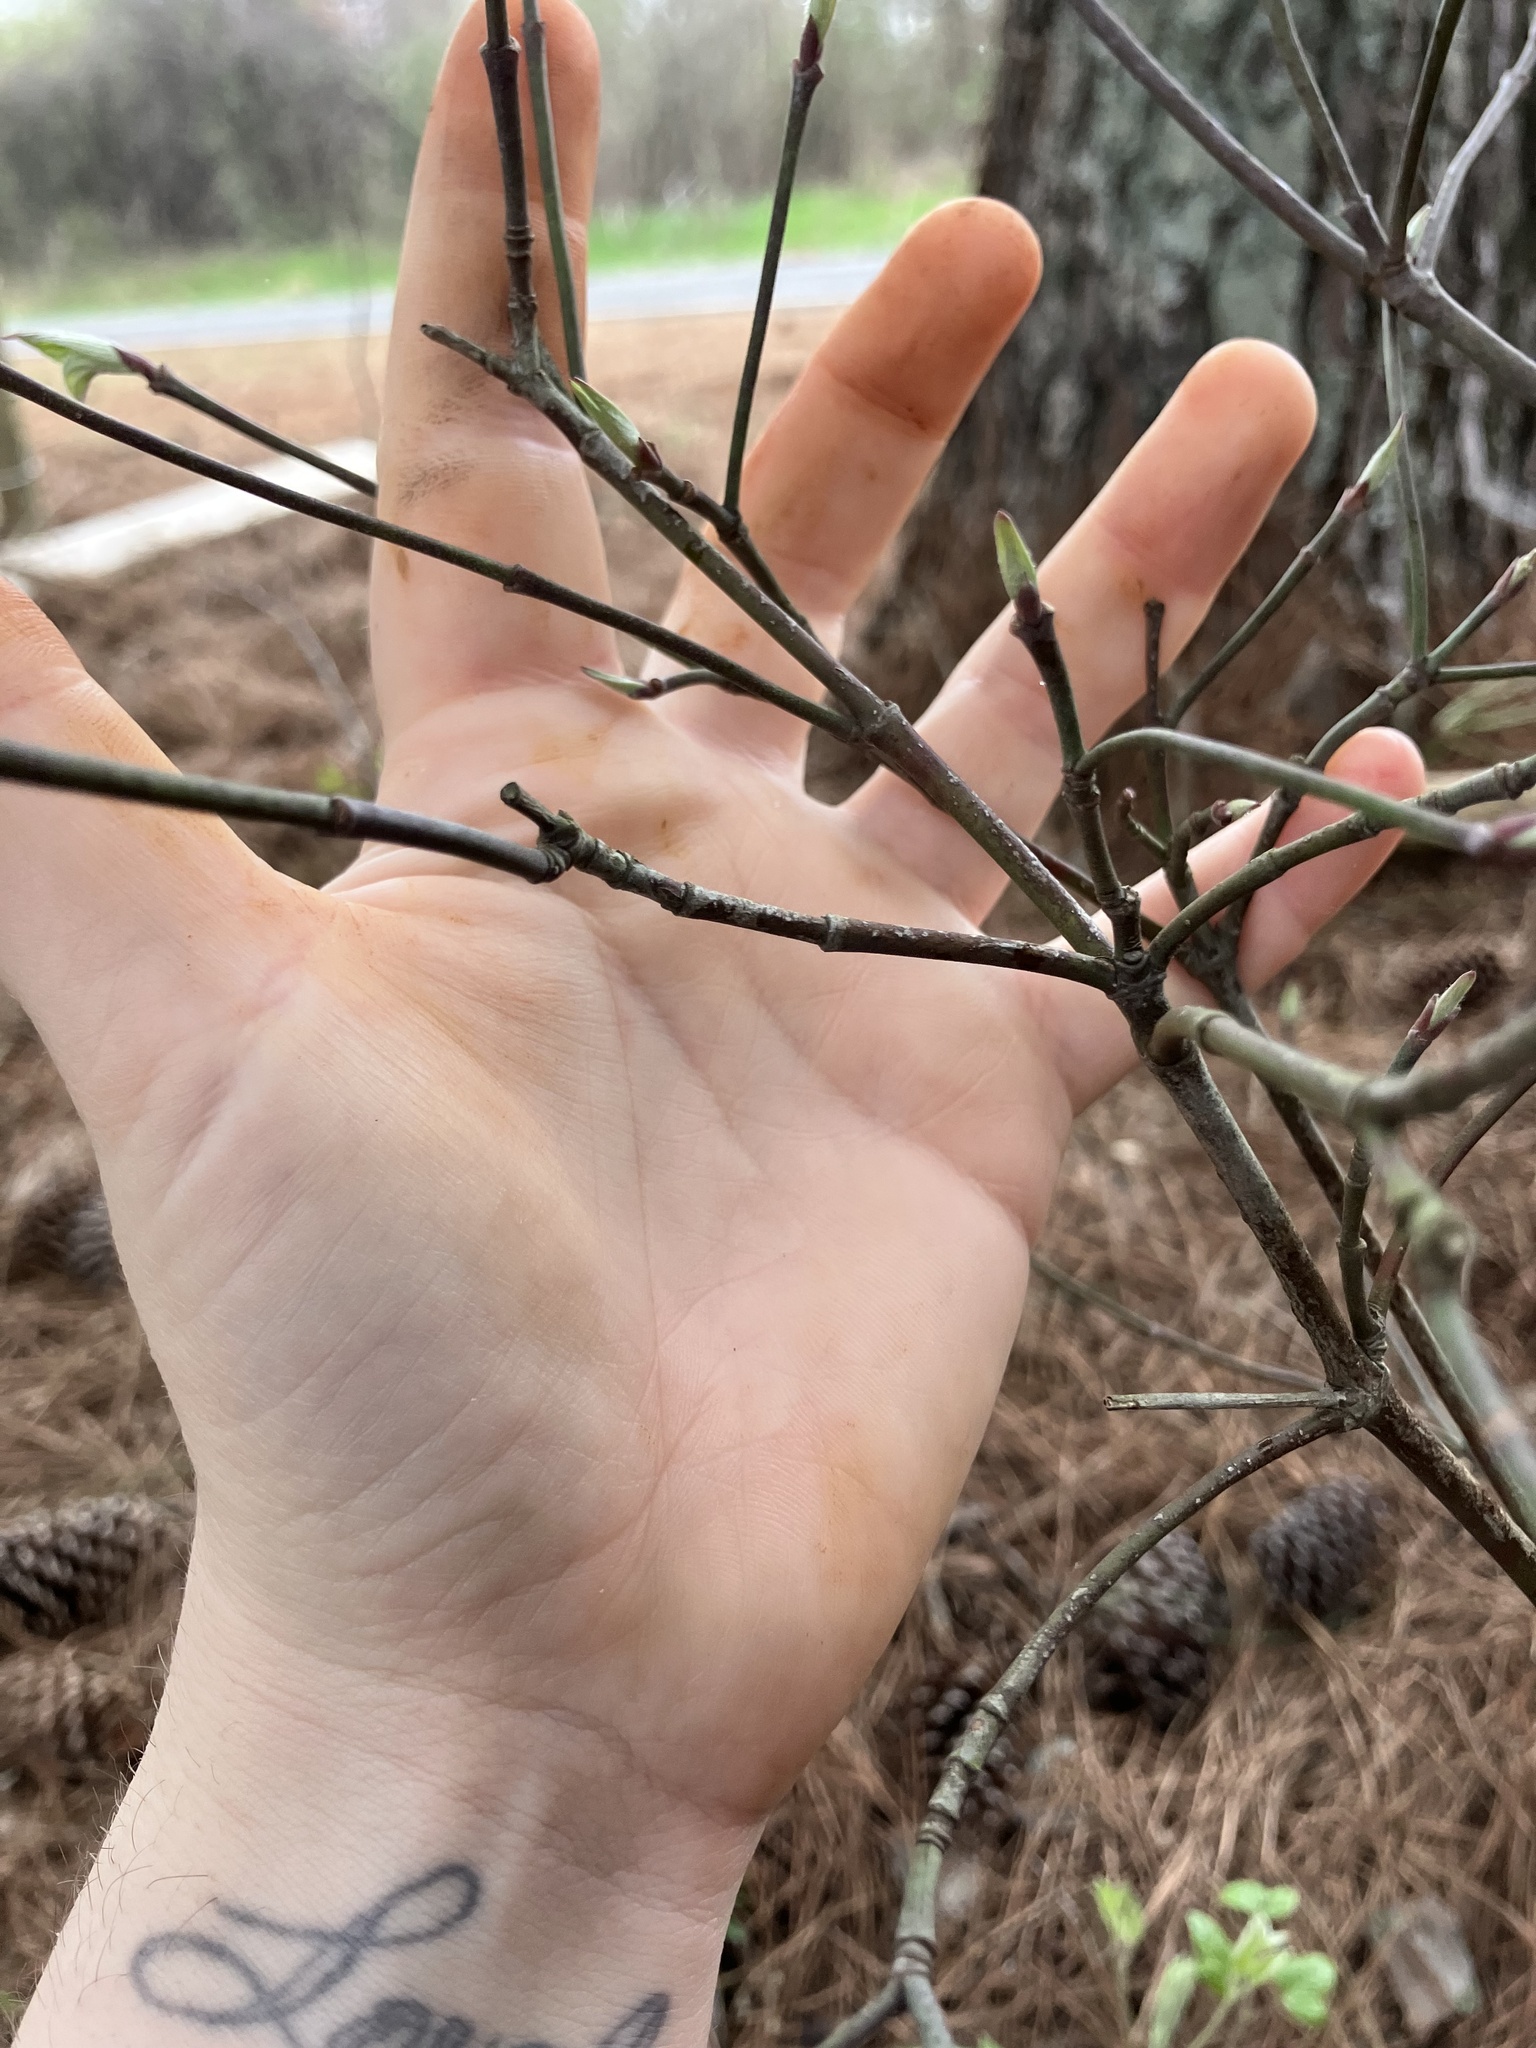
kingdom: Plantae
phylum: Tracheophyta
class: Magnoliopsida
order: Cornales
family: Cornaceae
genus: Cornus
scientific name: Cornus florida
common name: Flowering dogwood
